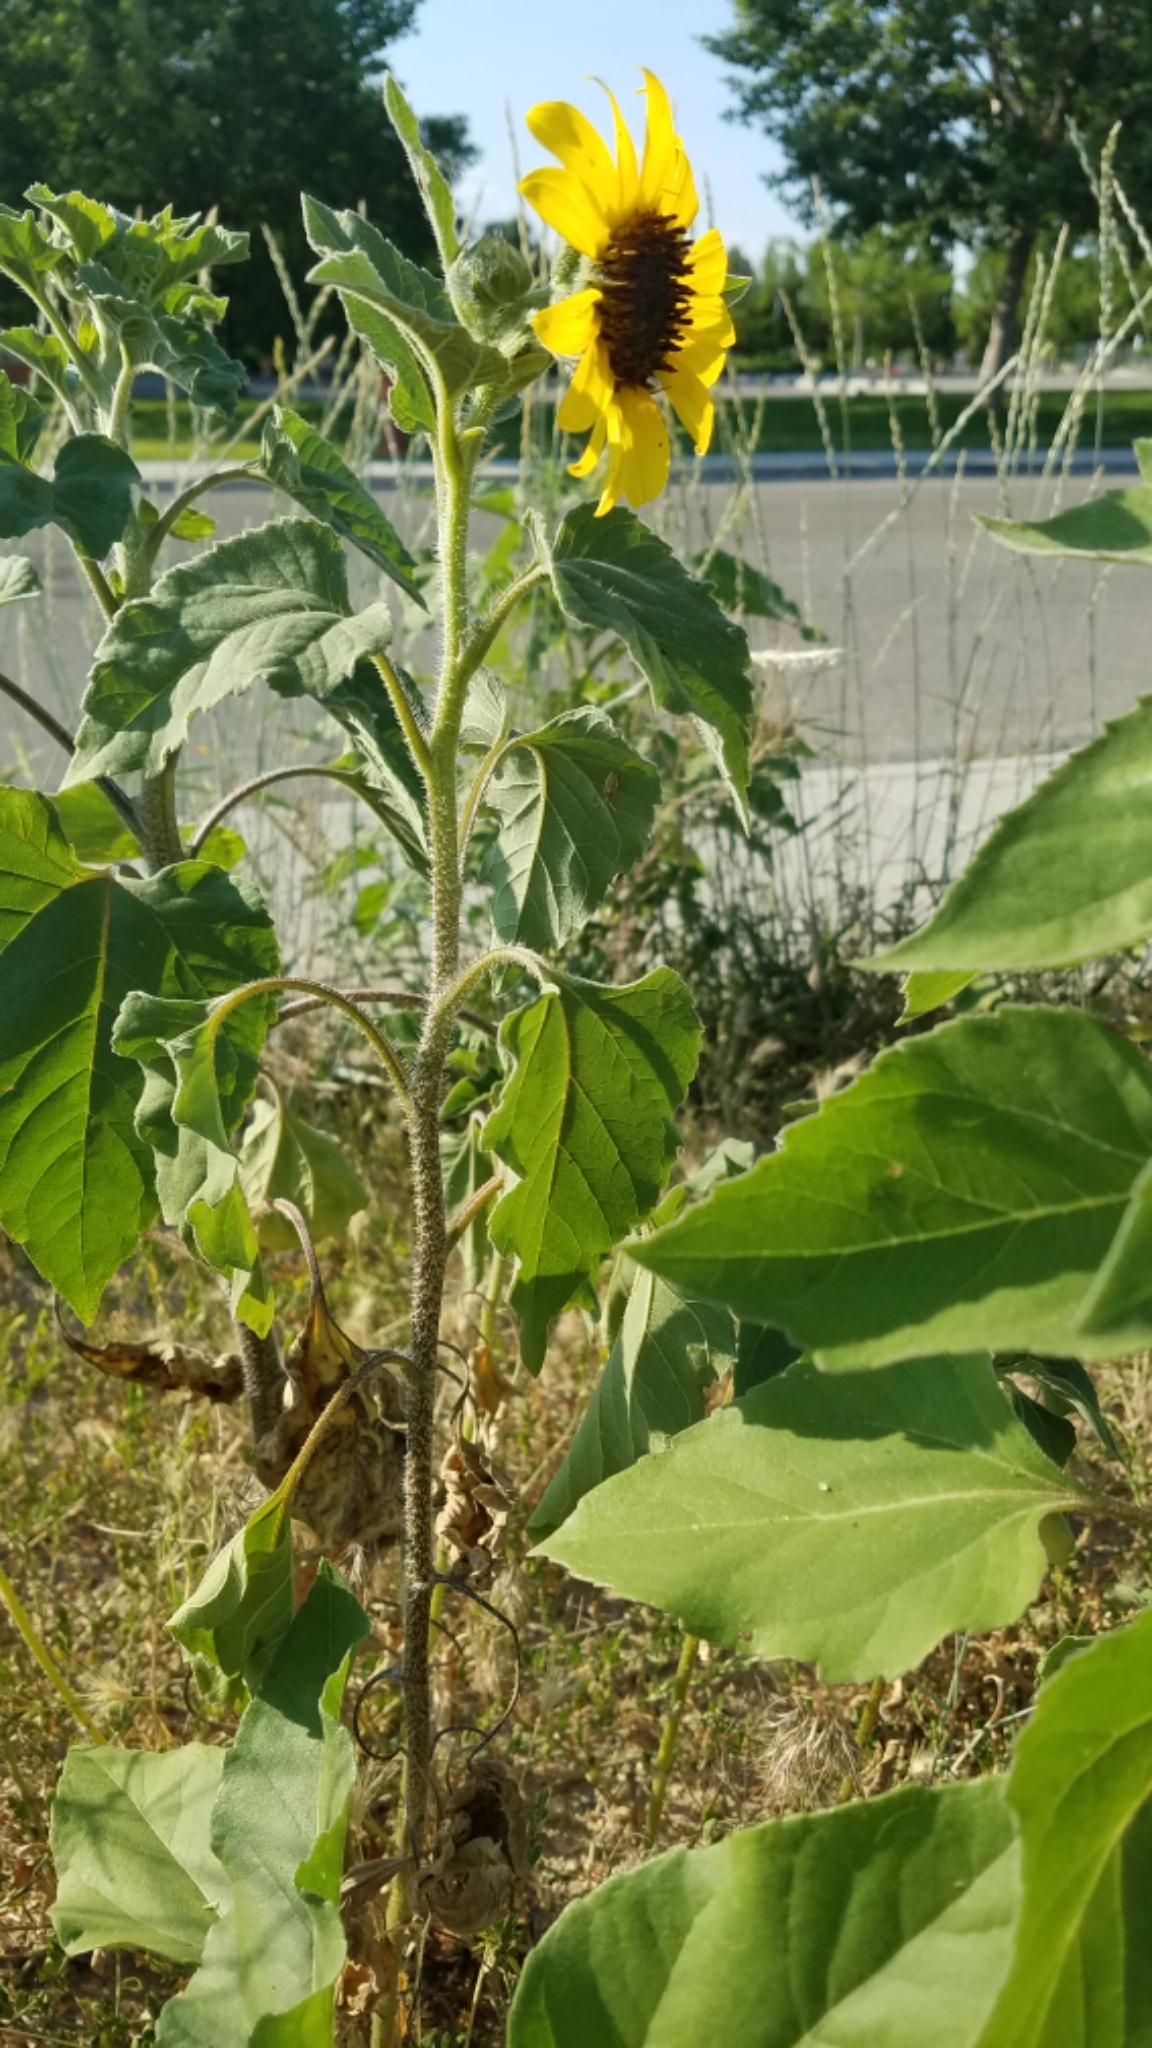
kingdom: Plantae
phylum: Tracheophyta
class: Magnoliopsida
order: Asterales
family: Asteraceae
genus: Helianthus
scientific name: Helianthus annuus
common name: Sunflower
